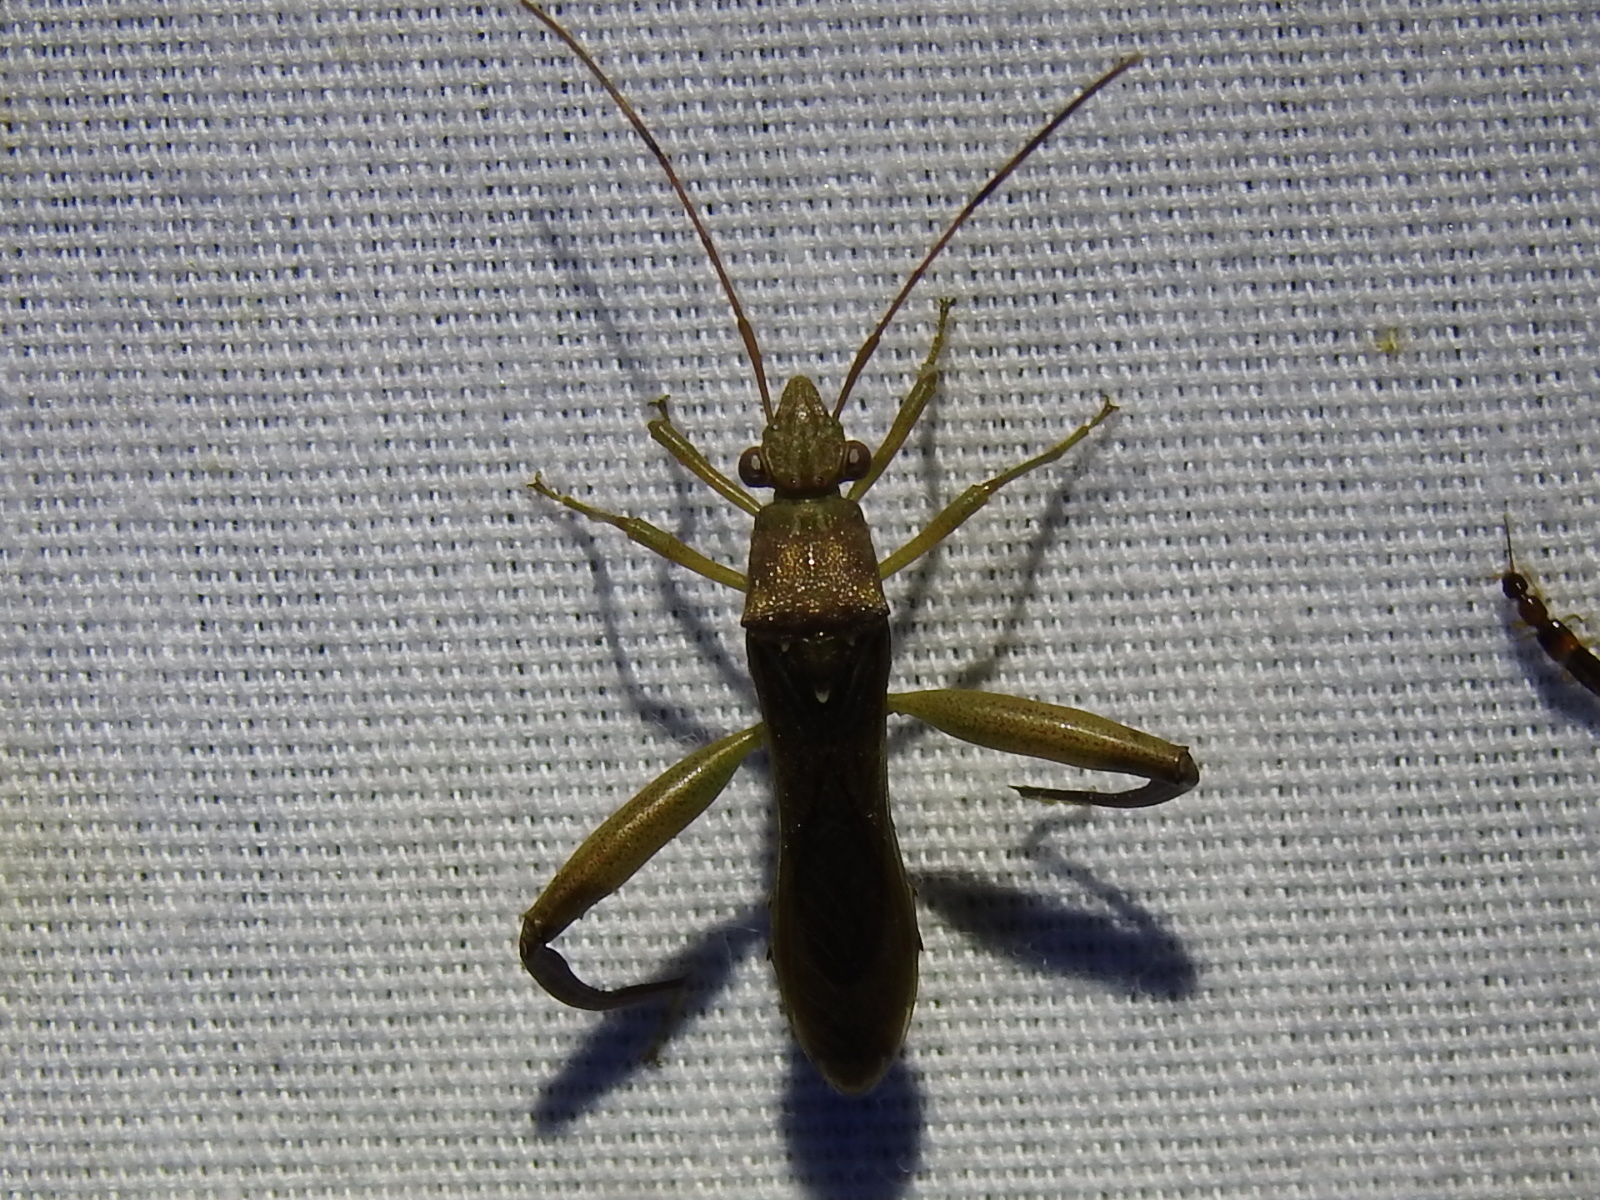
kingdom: Animalia
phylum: Arthropoda
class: Insecta
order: Hemiptera
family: Alydidae
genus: Hyalymenus
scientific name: Hyalymenus tarsatus
